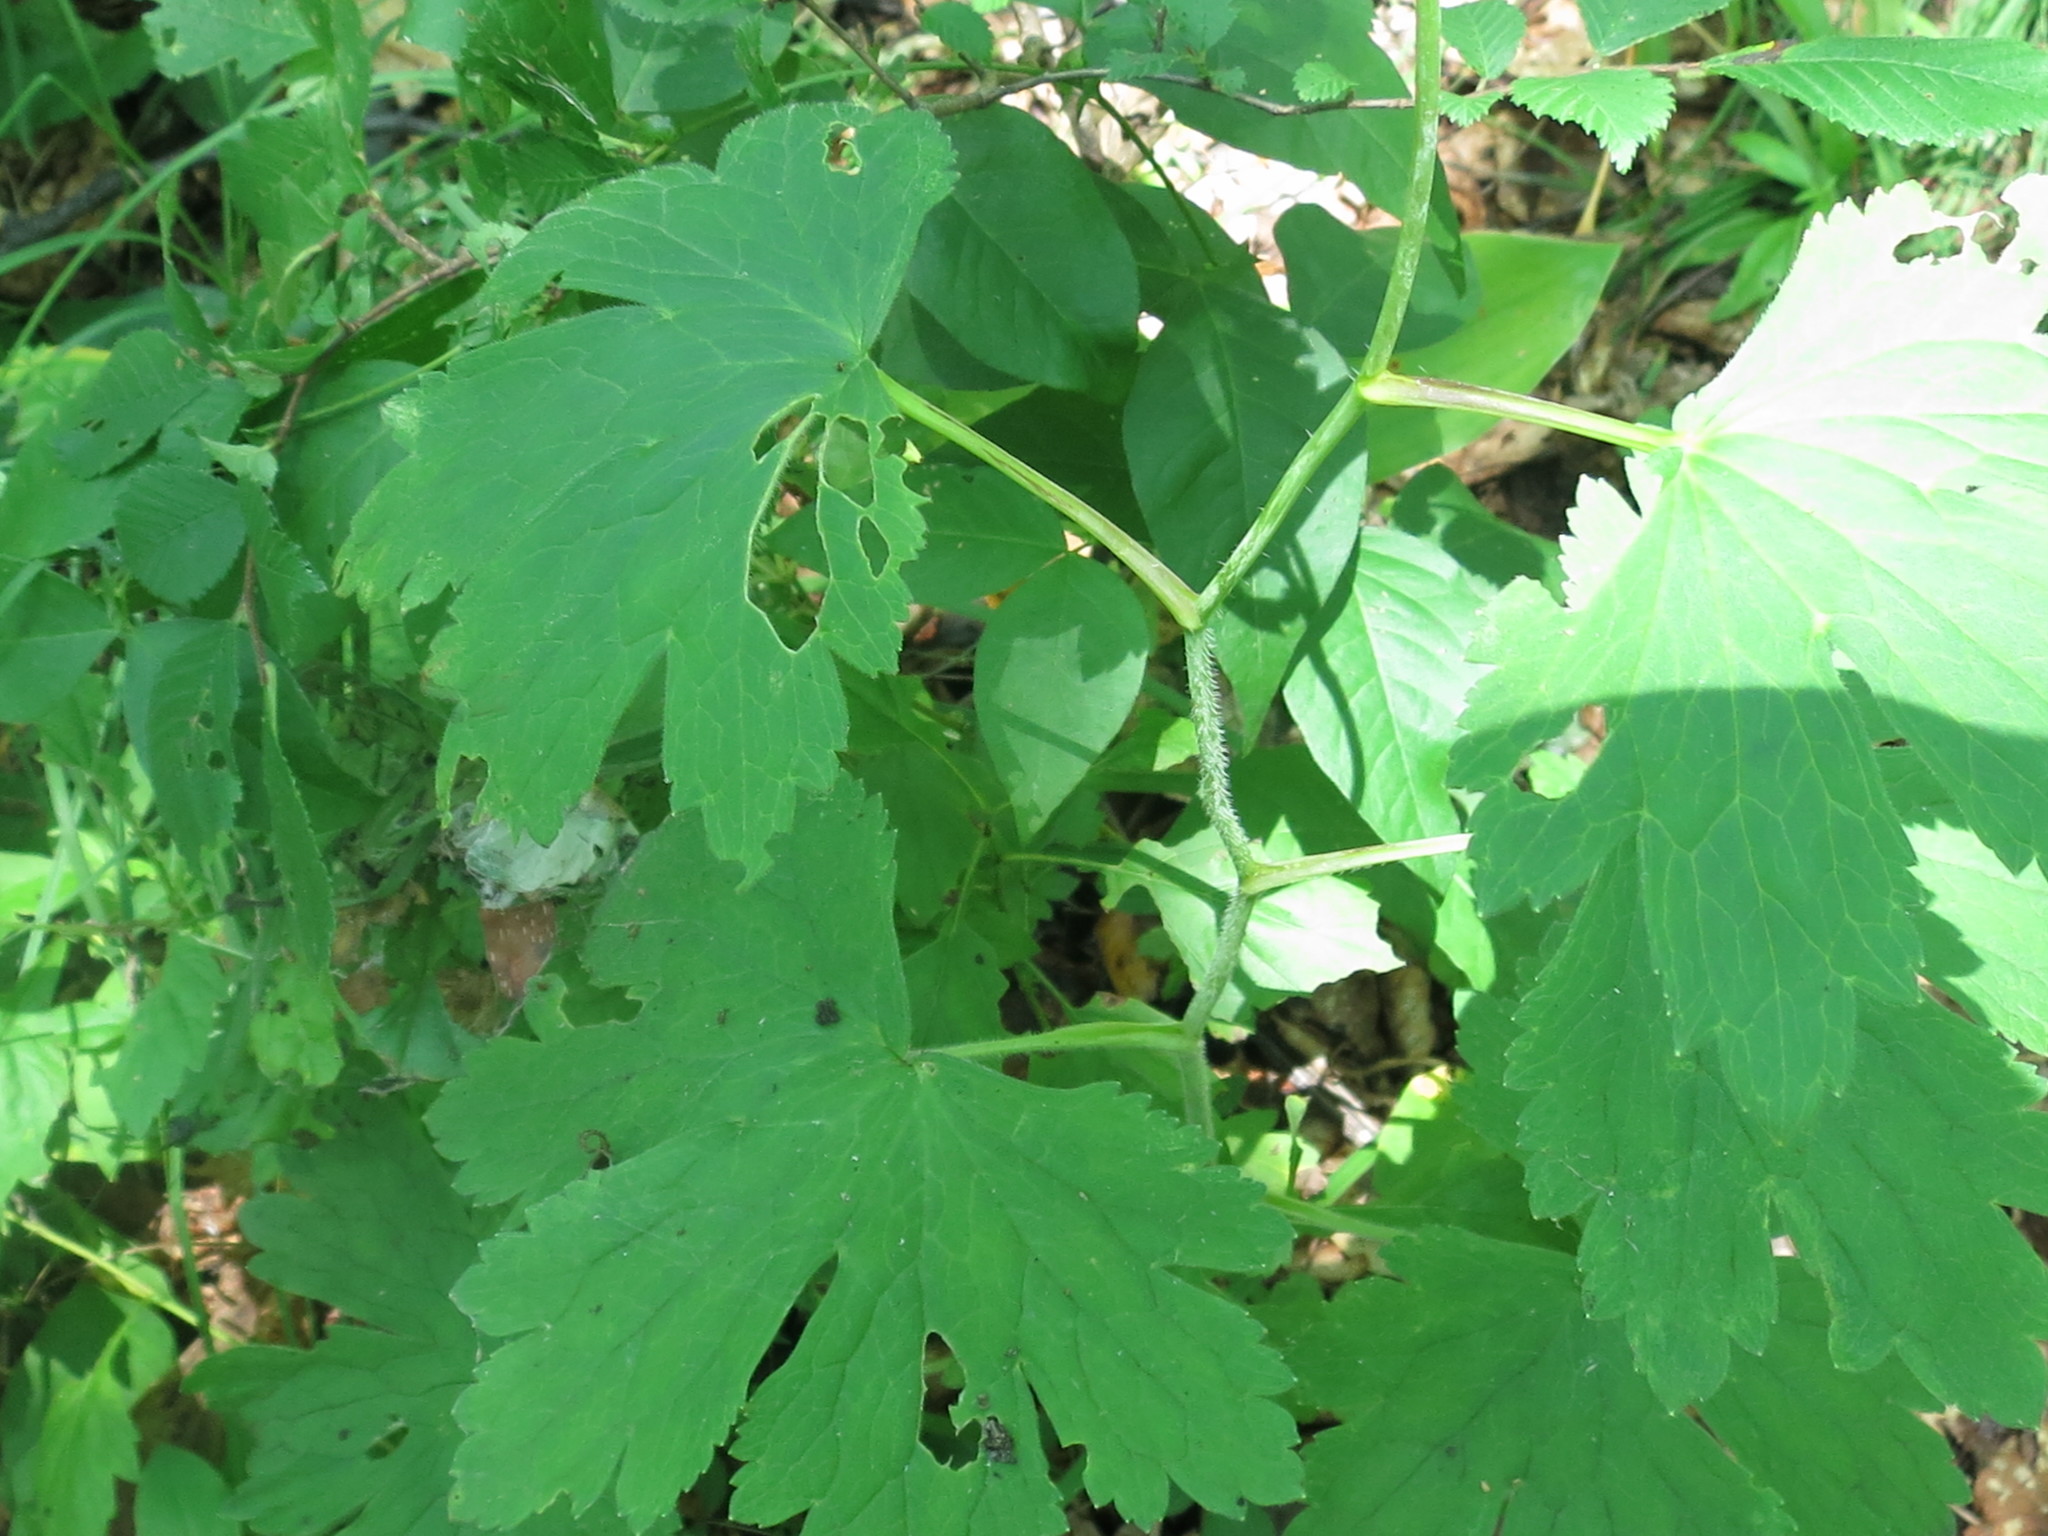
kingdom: Plantae
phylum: Tracheophyta
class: Magnoliopsida
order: Ranunculales
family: Ranunculaceae
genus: Delphinium
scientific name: Delphinium maackianum
